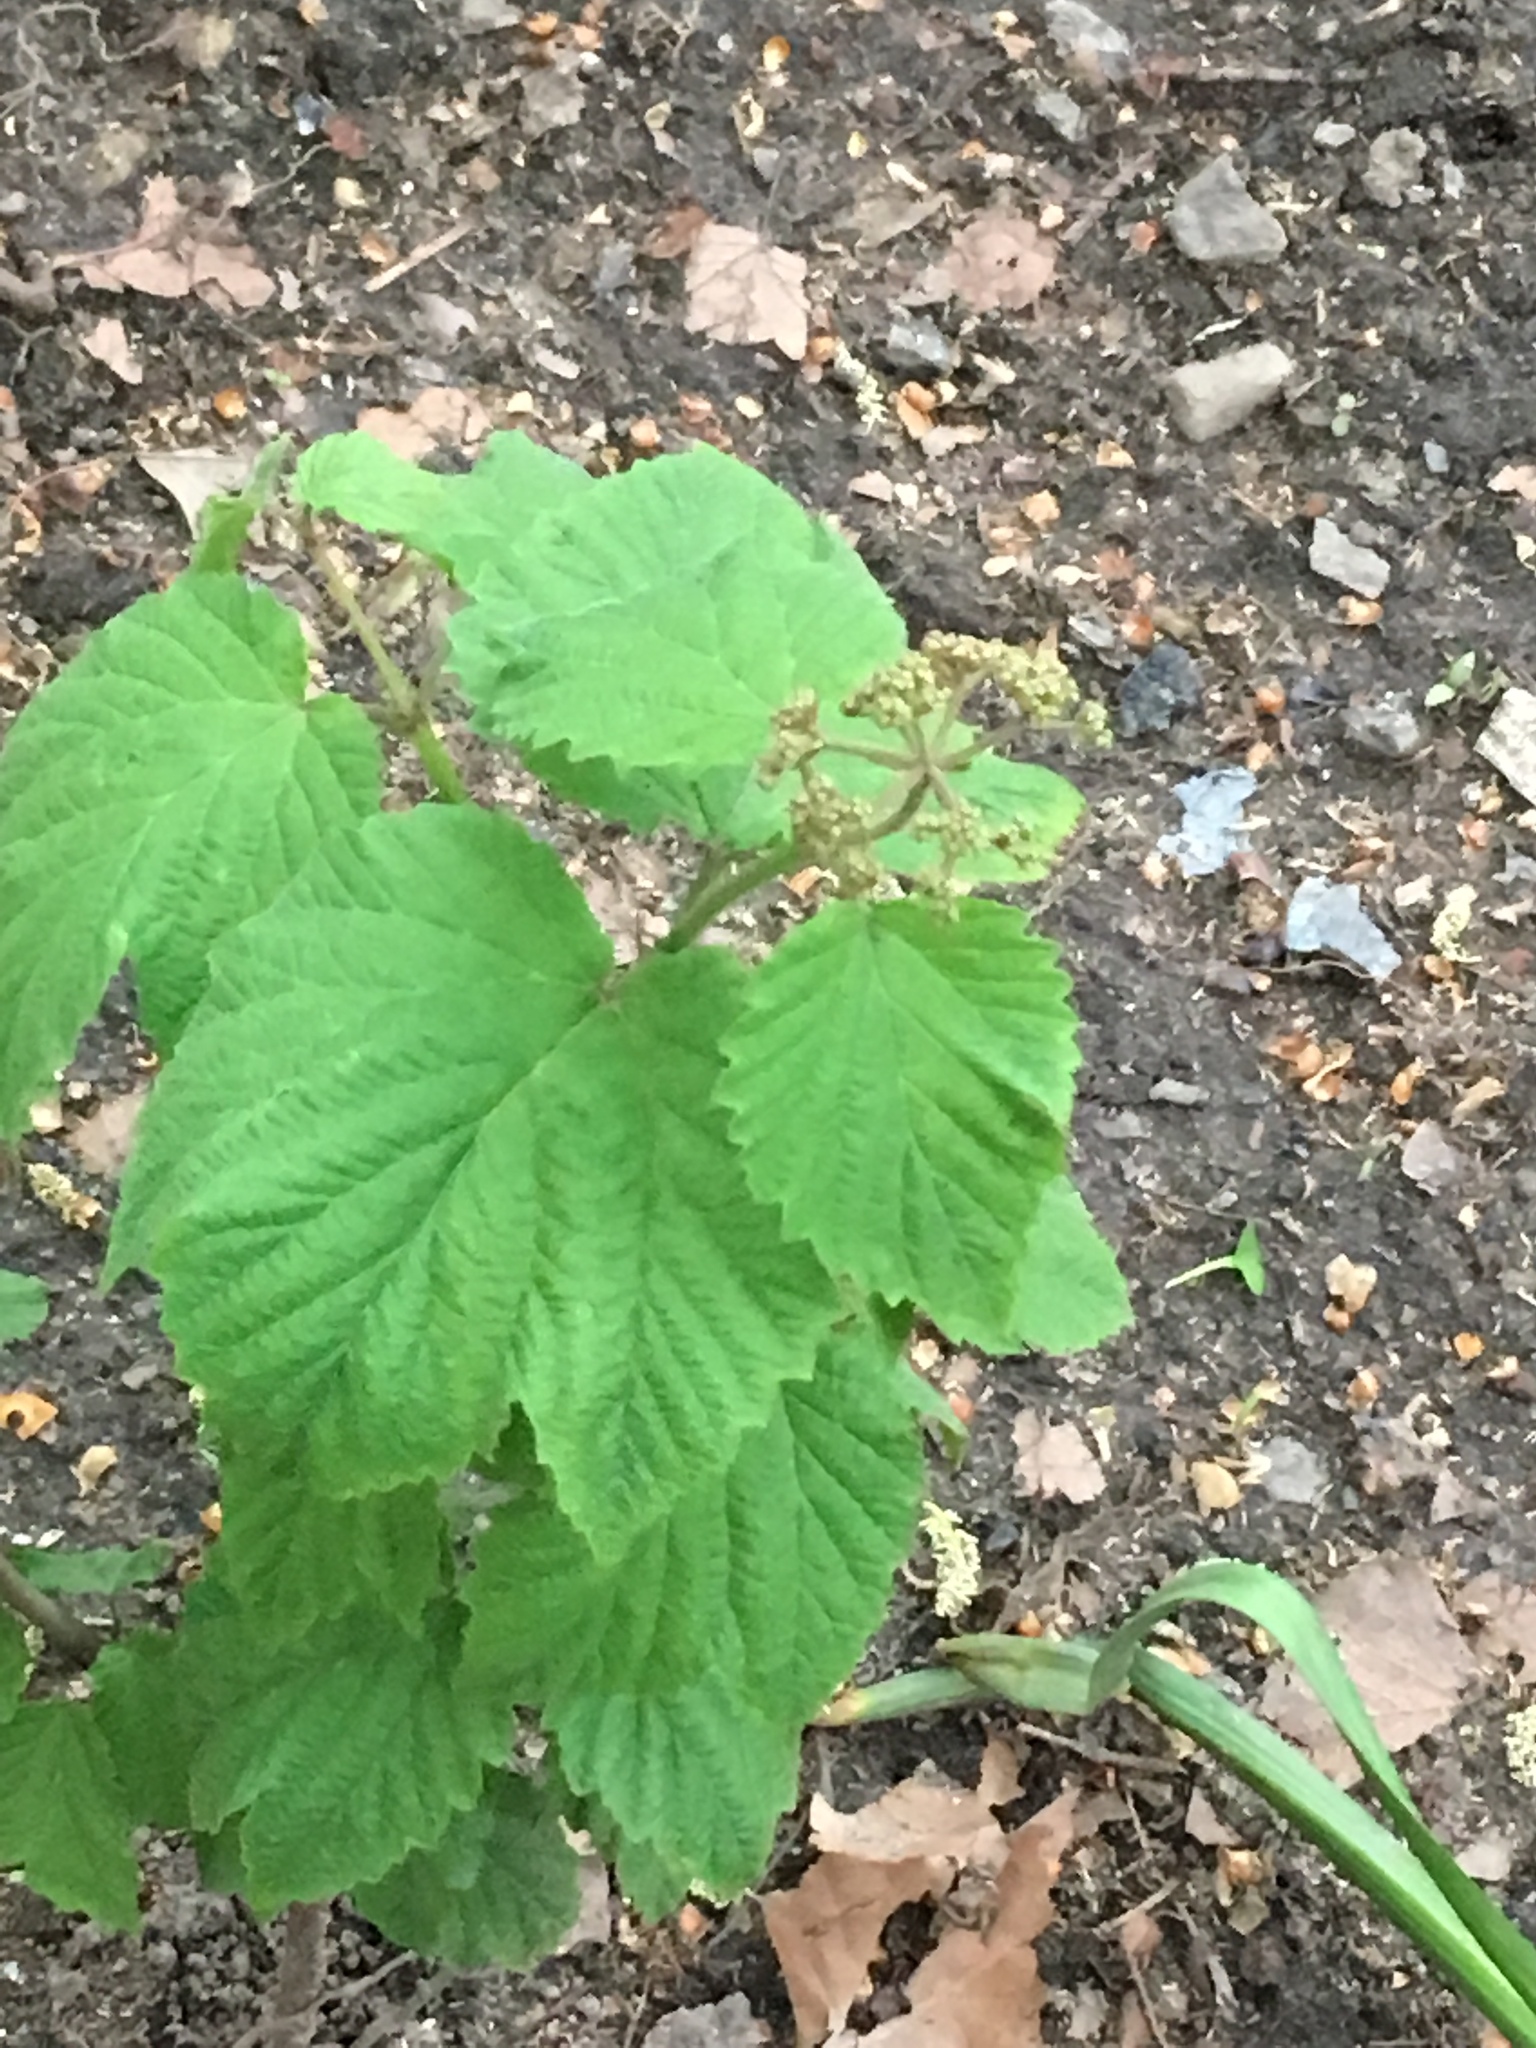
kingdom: Plantae
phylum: Tracheophyta
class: Magnoliopsida
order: Dipsacales
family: Viburnaceae
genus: Viburnum
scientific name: Viburnum acerifolium
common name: Dockmackie
